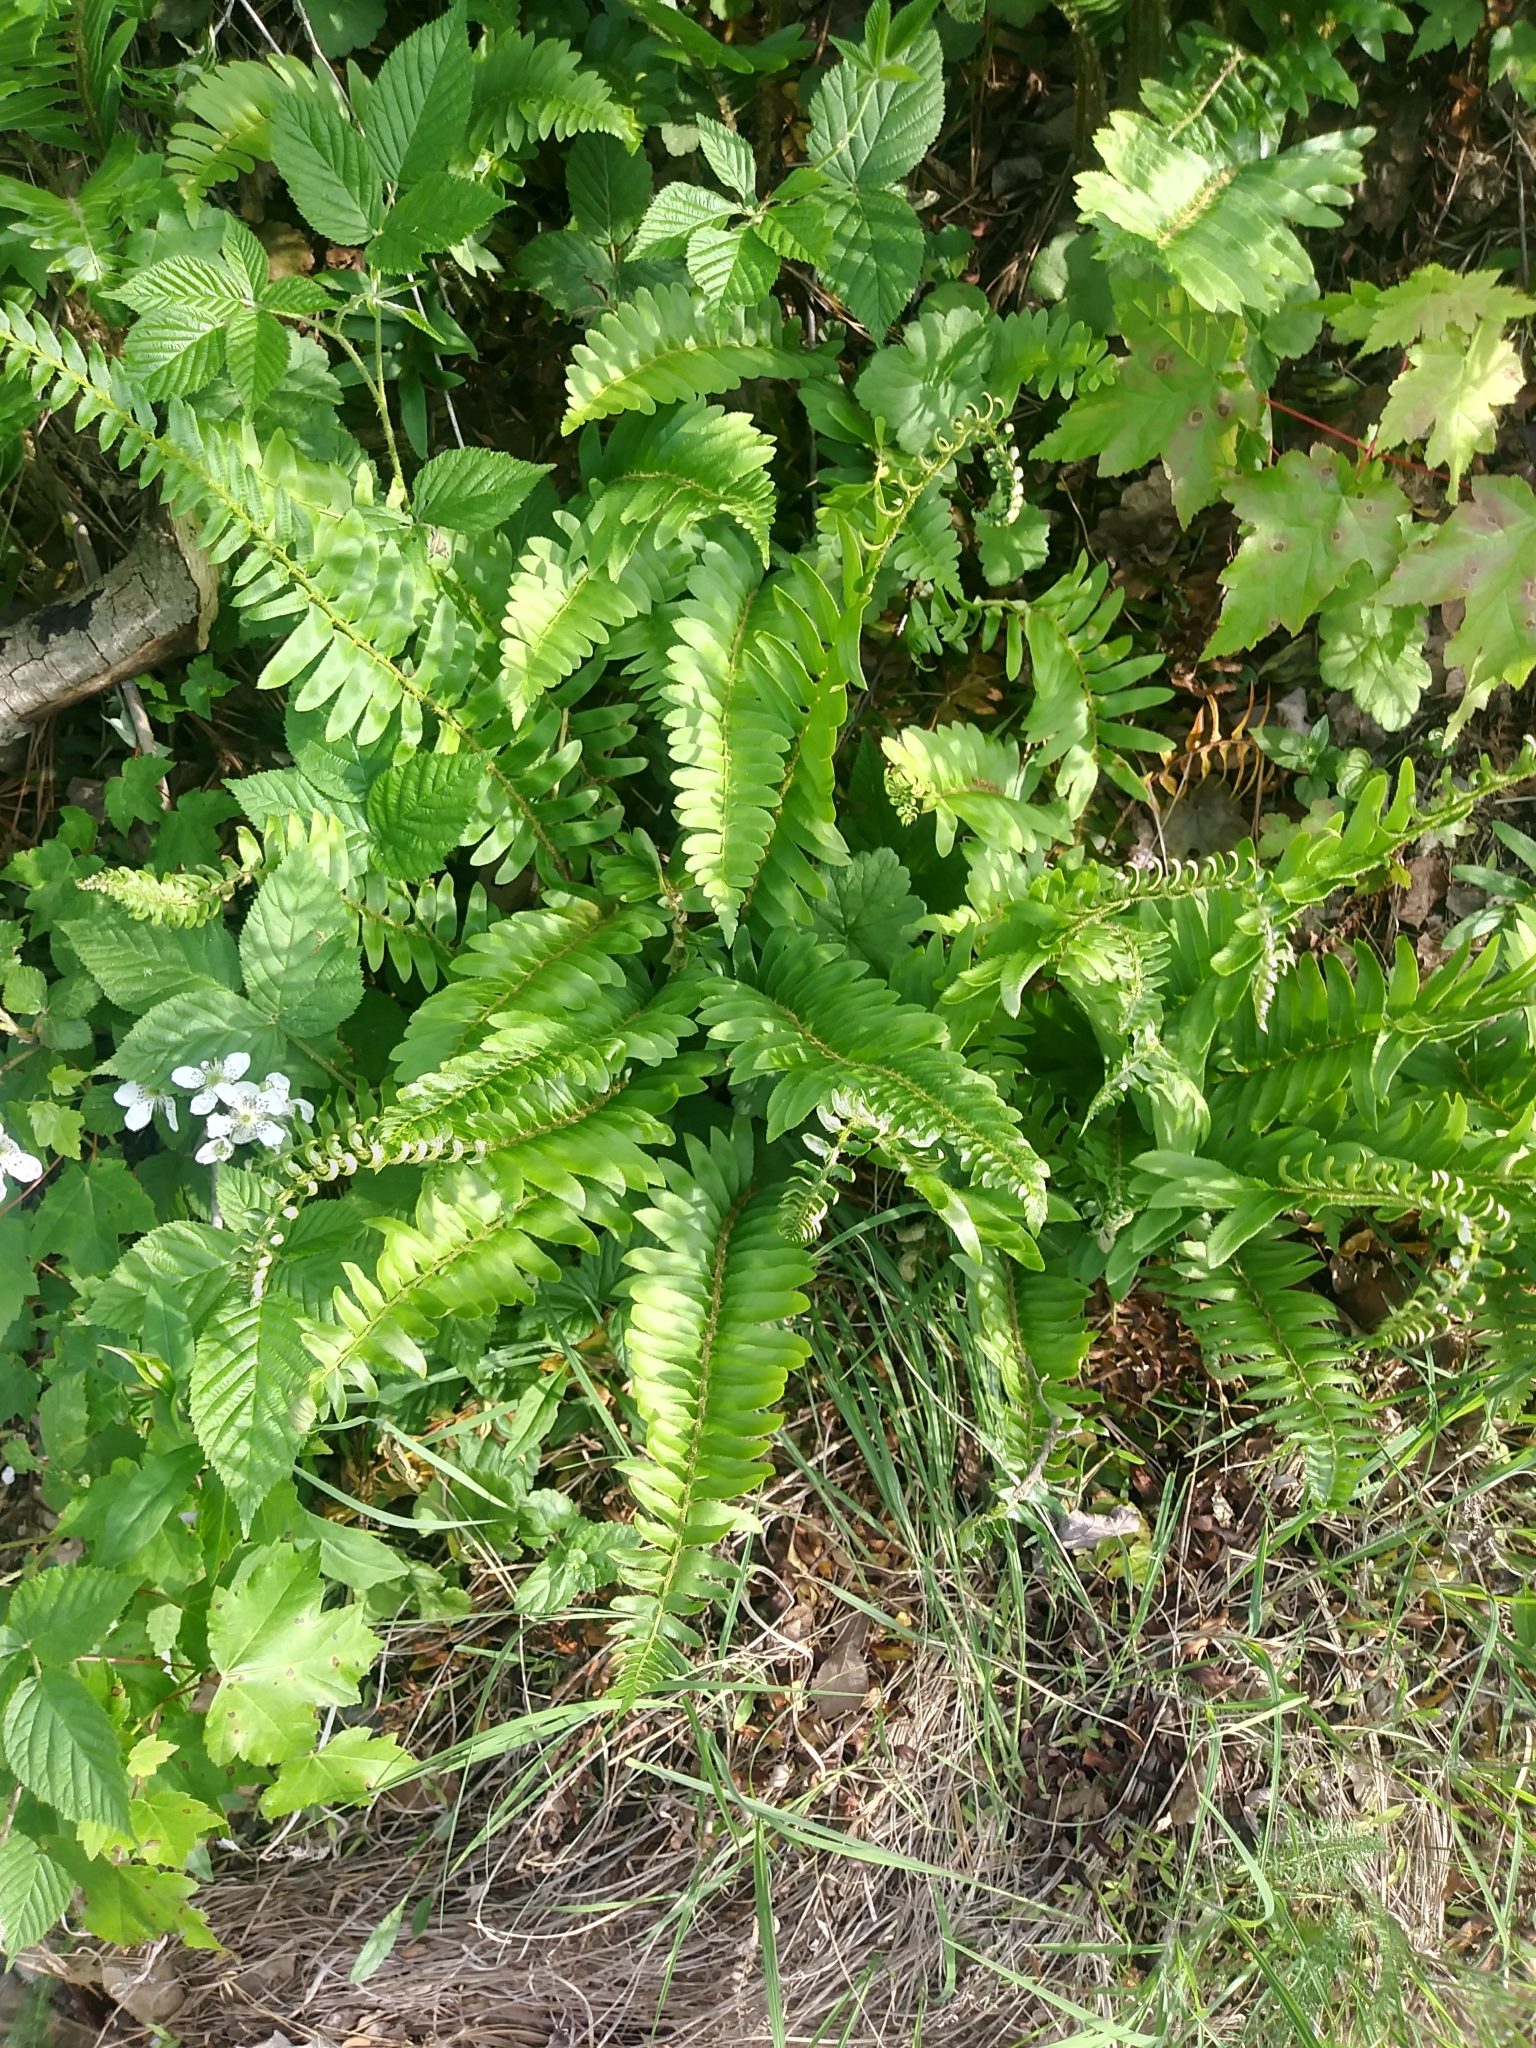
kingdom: Plantae
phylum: Tracheophyta
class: Polypodiopsida
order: Polypodiales
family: Dryopteridaceae
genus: Polystichum
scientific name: Polystichum acrostichoides
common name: Christmas fern
